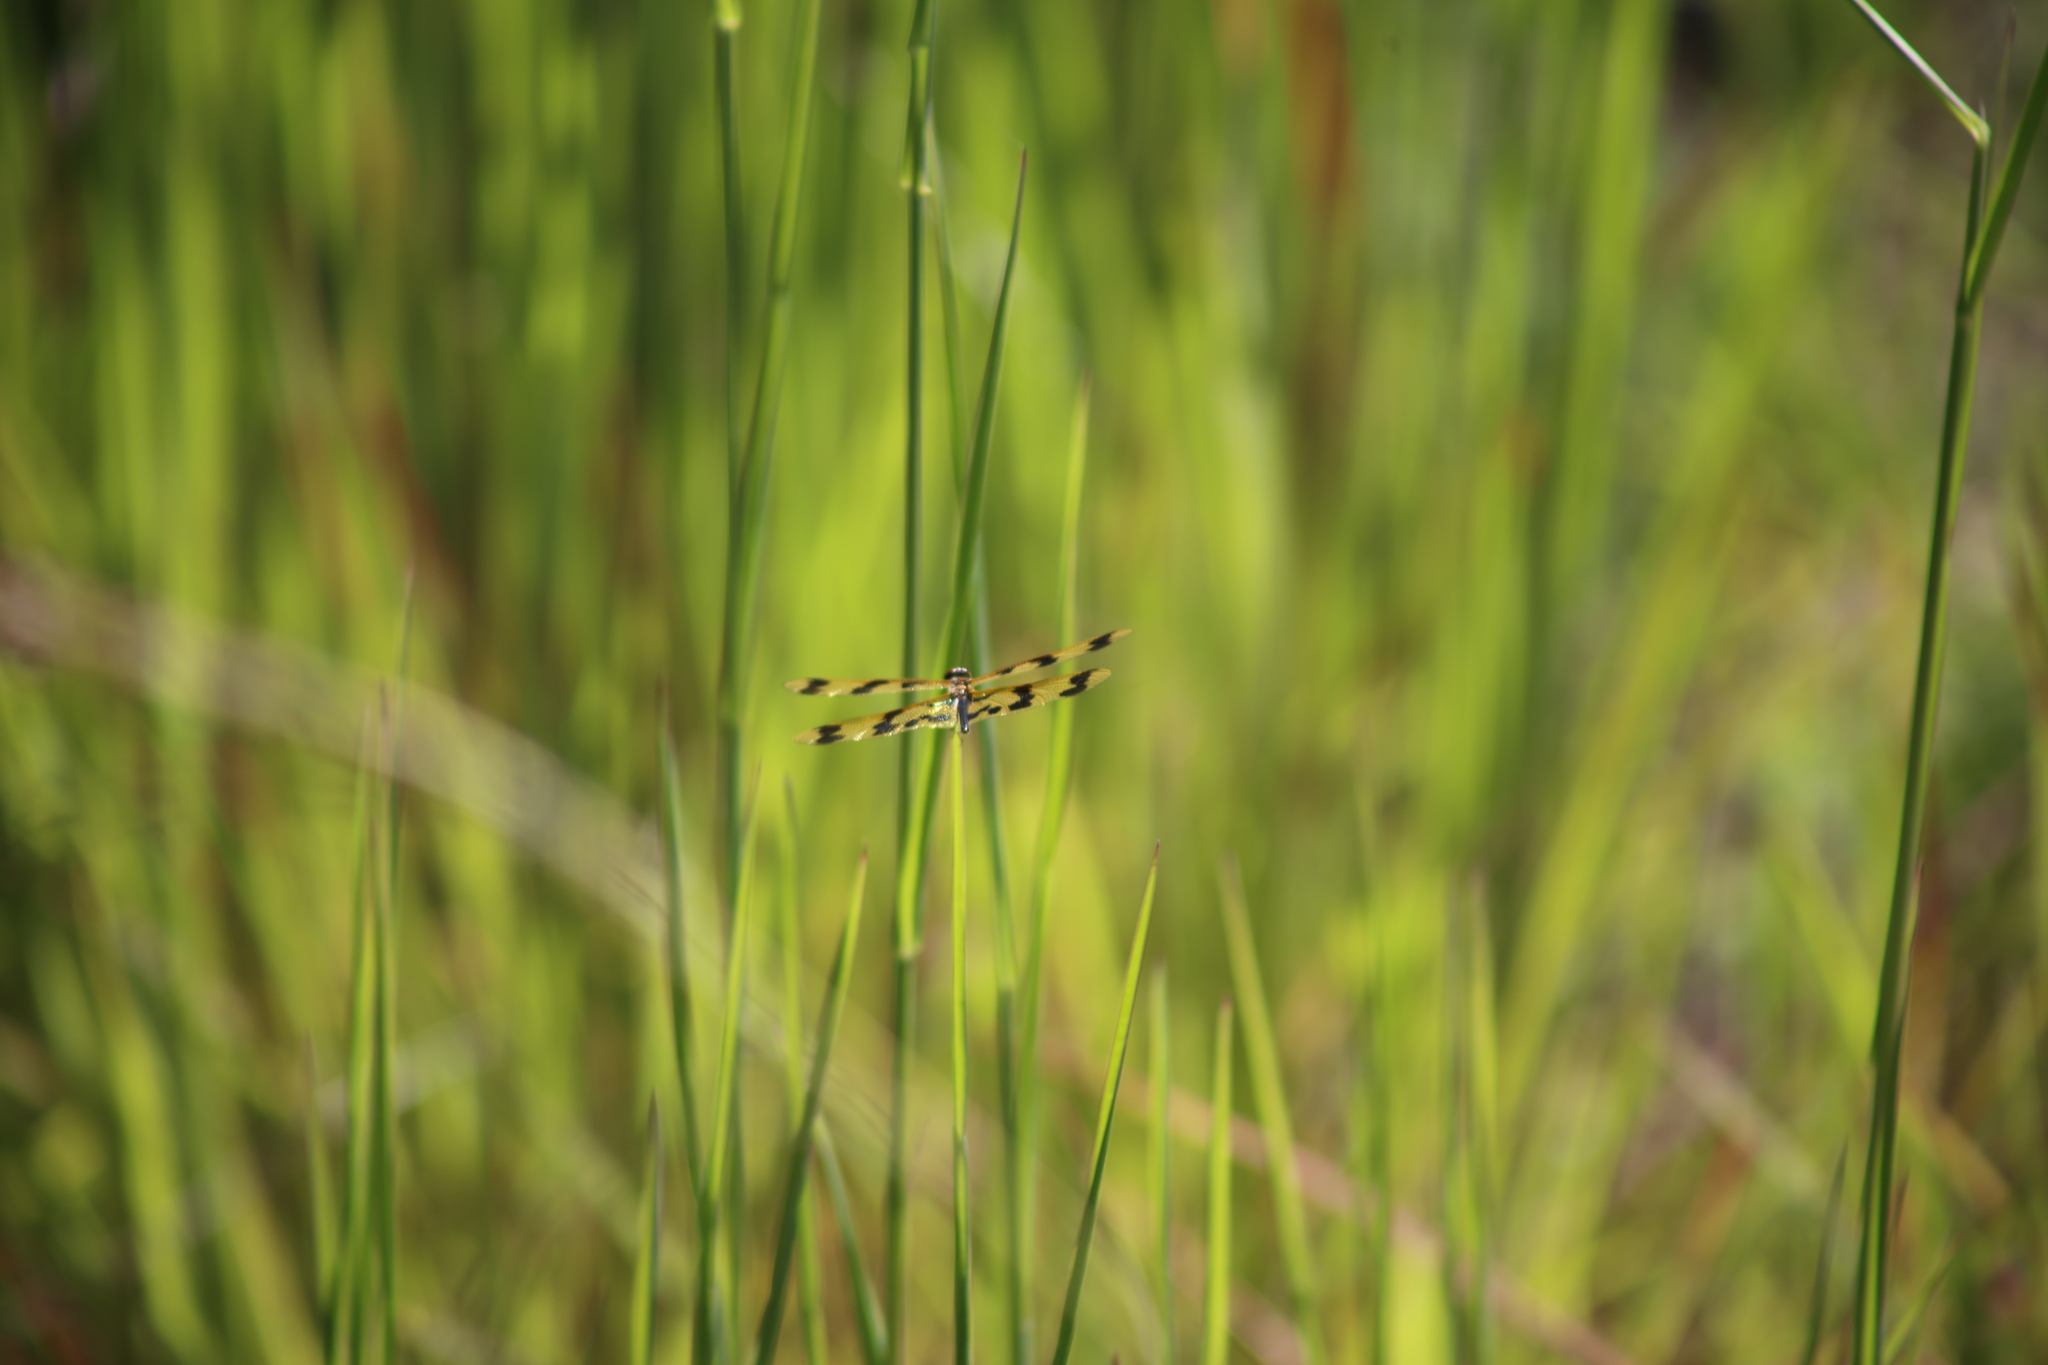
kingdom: Animalia
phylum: Arthropoda
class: Insecta
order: Odonata
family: Libellulidae
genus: Rhyothemis
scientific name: Rhyothemis graphiptera
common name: Graphic flutterer
